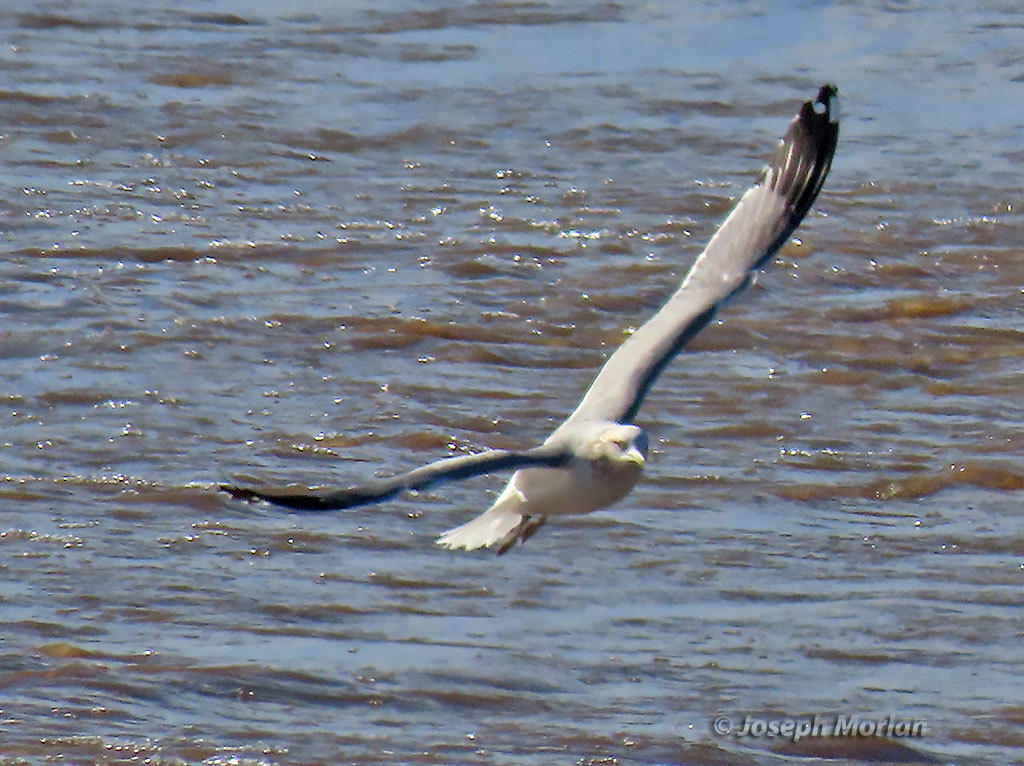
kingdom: Animalia
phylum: Chordata
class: Aves
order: Charadriiformes
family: Laridae
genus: Larus
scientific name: Larus californicus
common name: California gull
